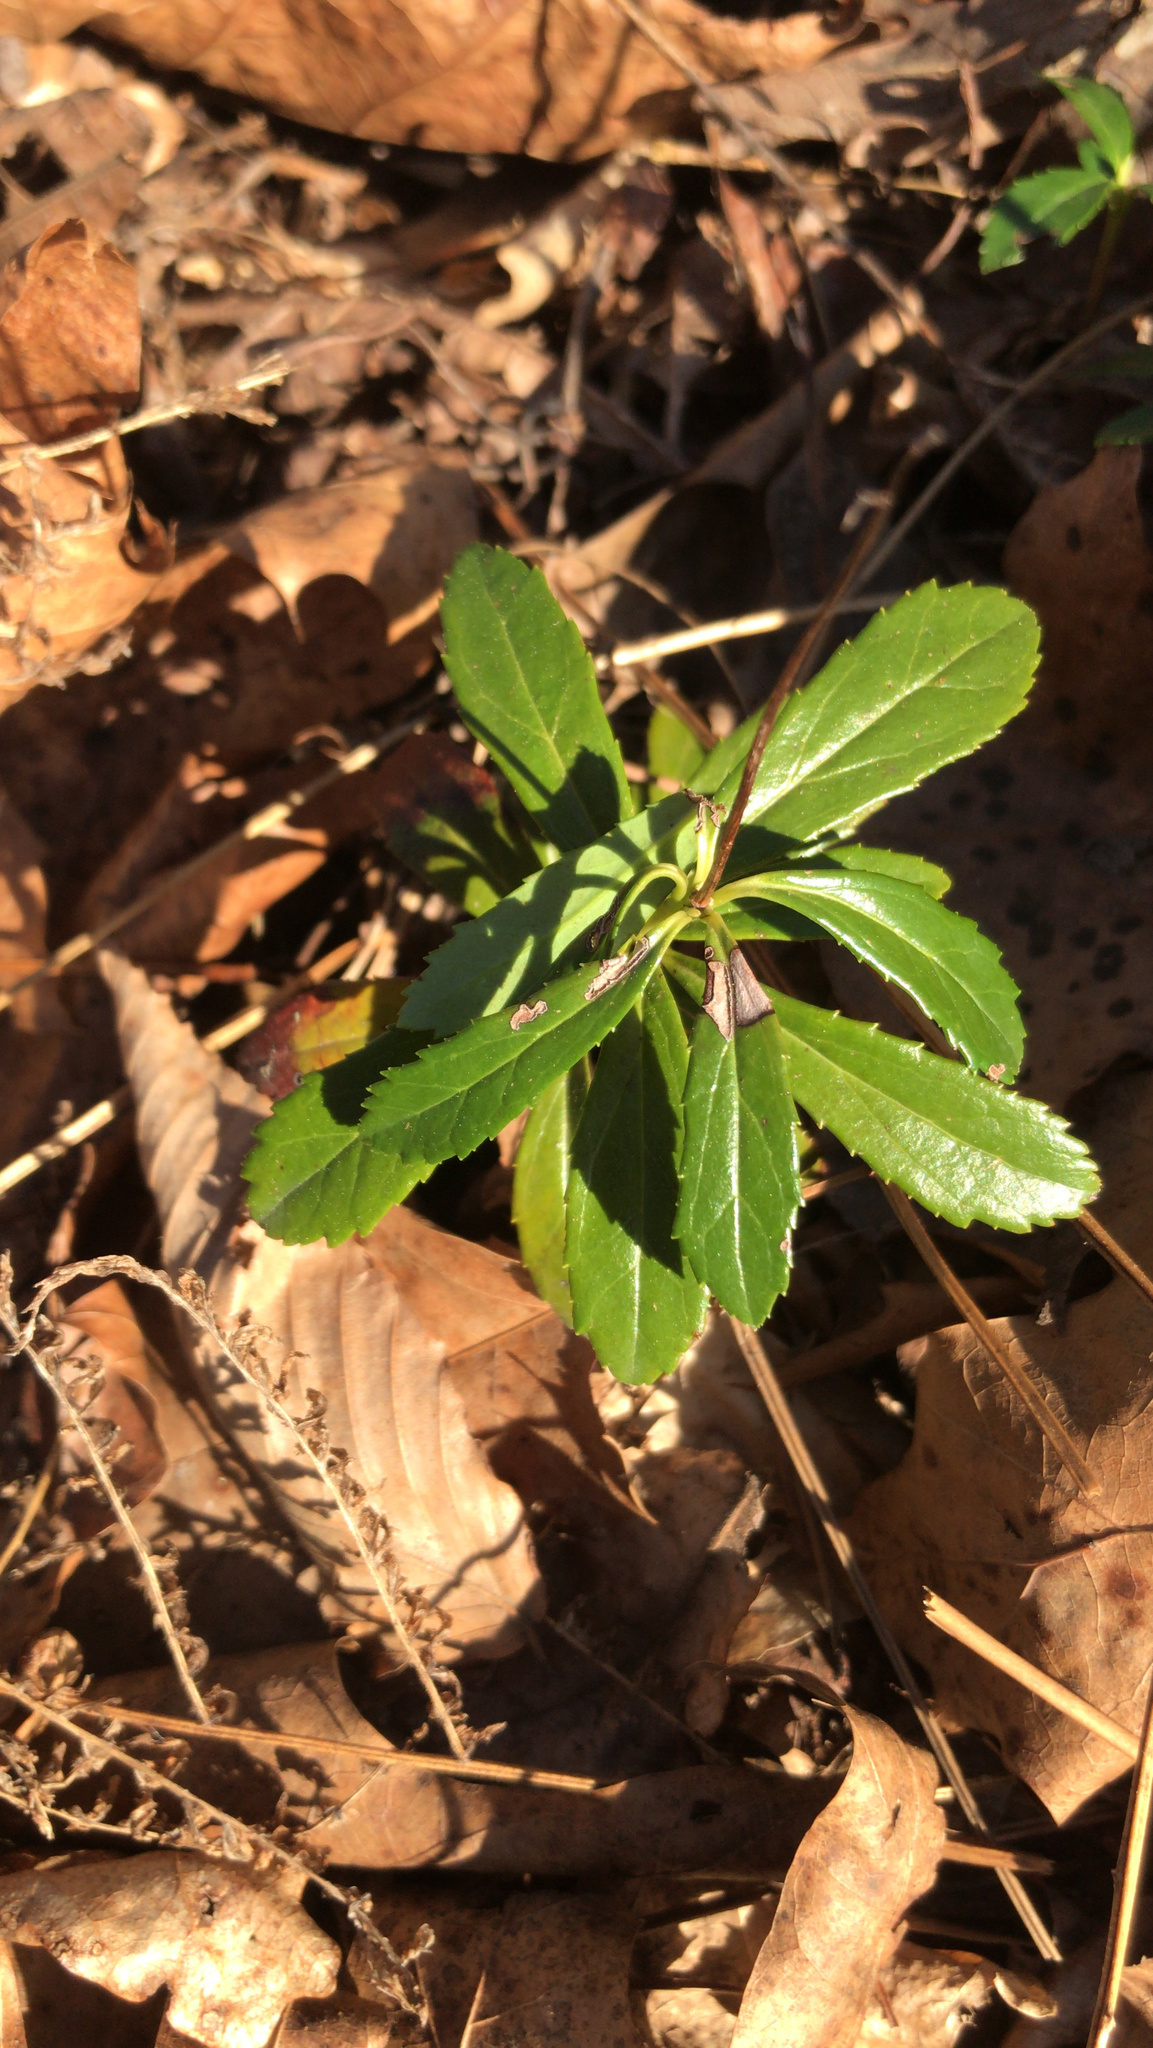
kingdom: Plantae
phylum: Tracheophyta
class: Magnoliopsida
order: Ericales
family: Ericaceae
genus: Chimaphila
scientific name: Chimaphila umbellata
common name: Pipsissewa
